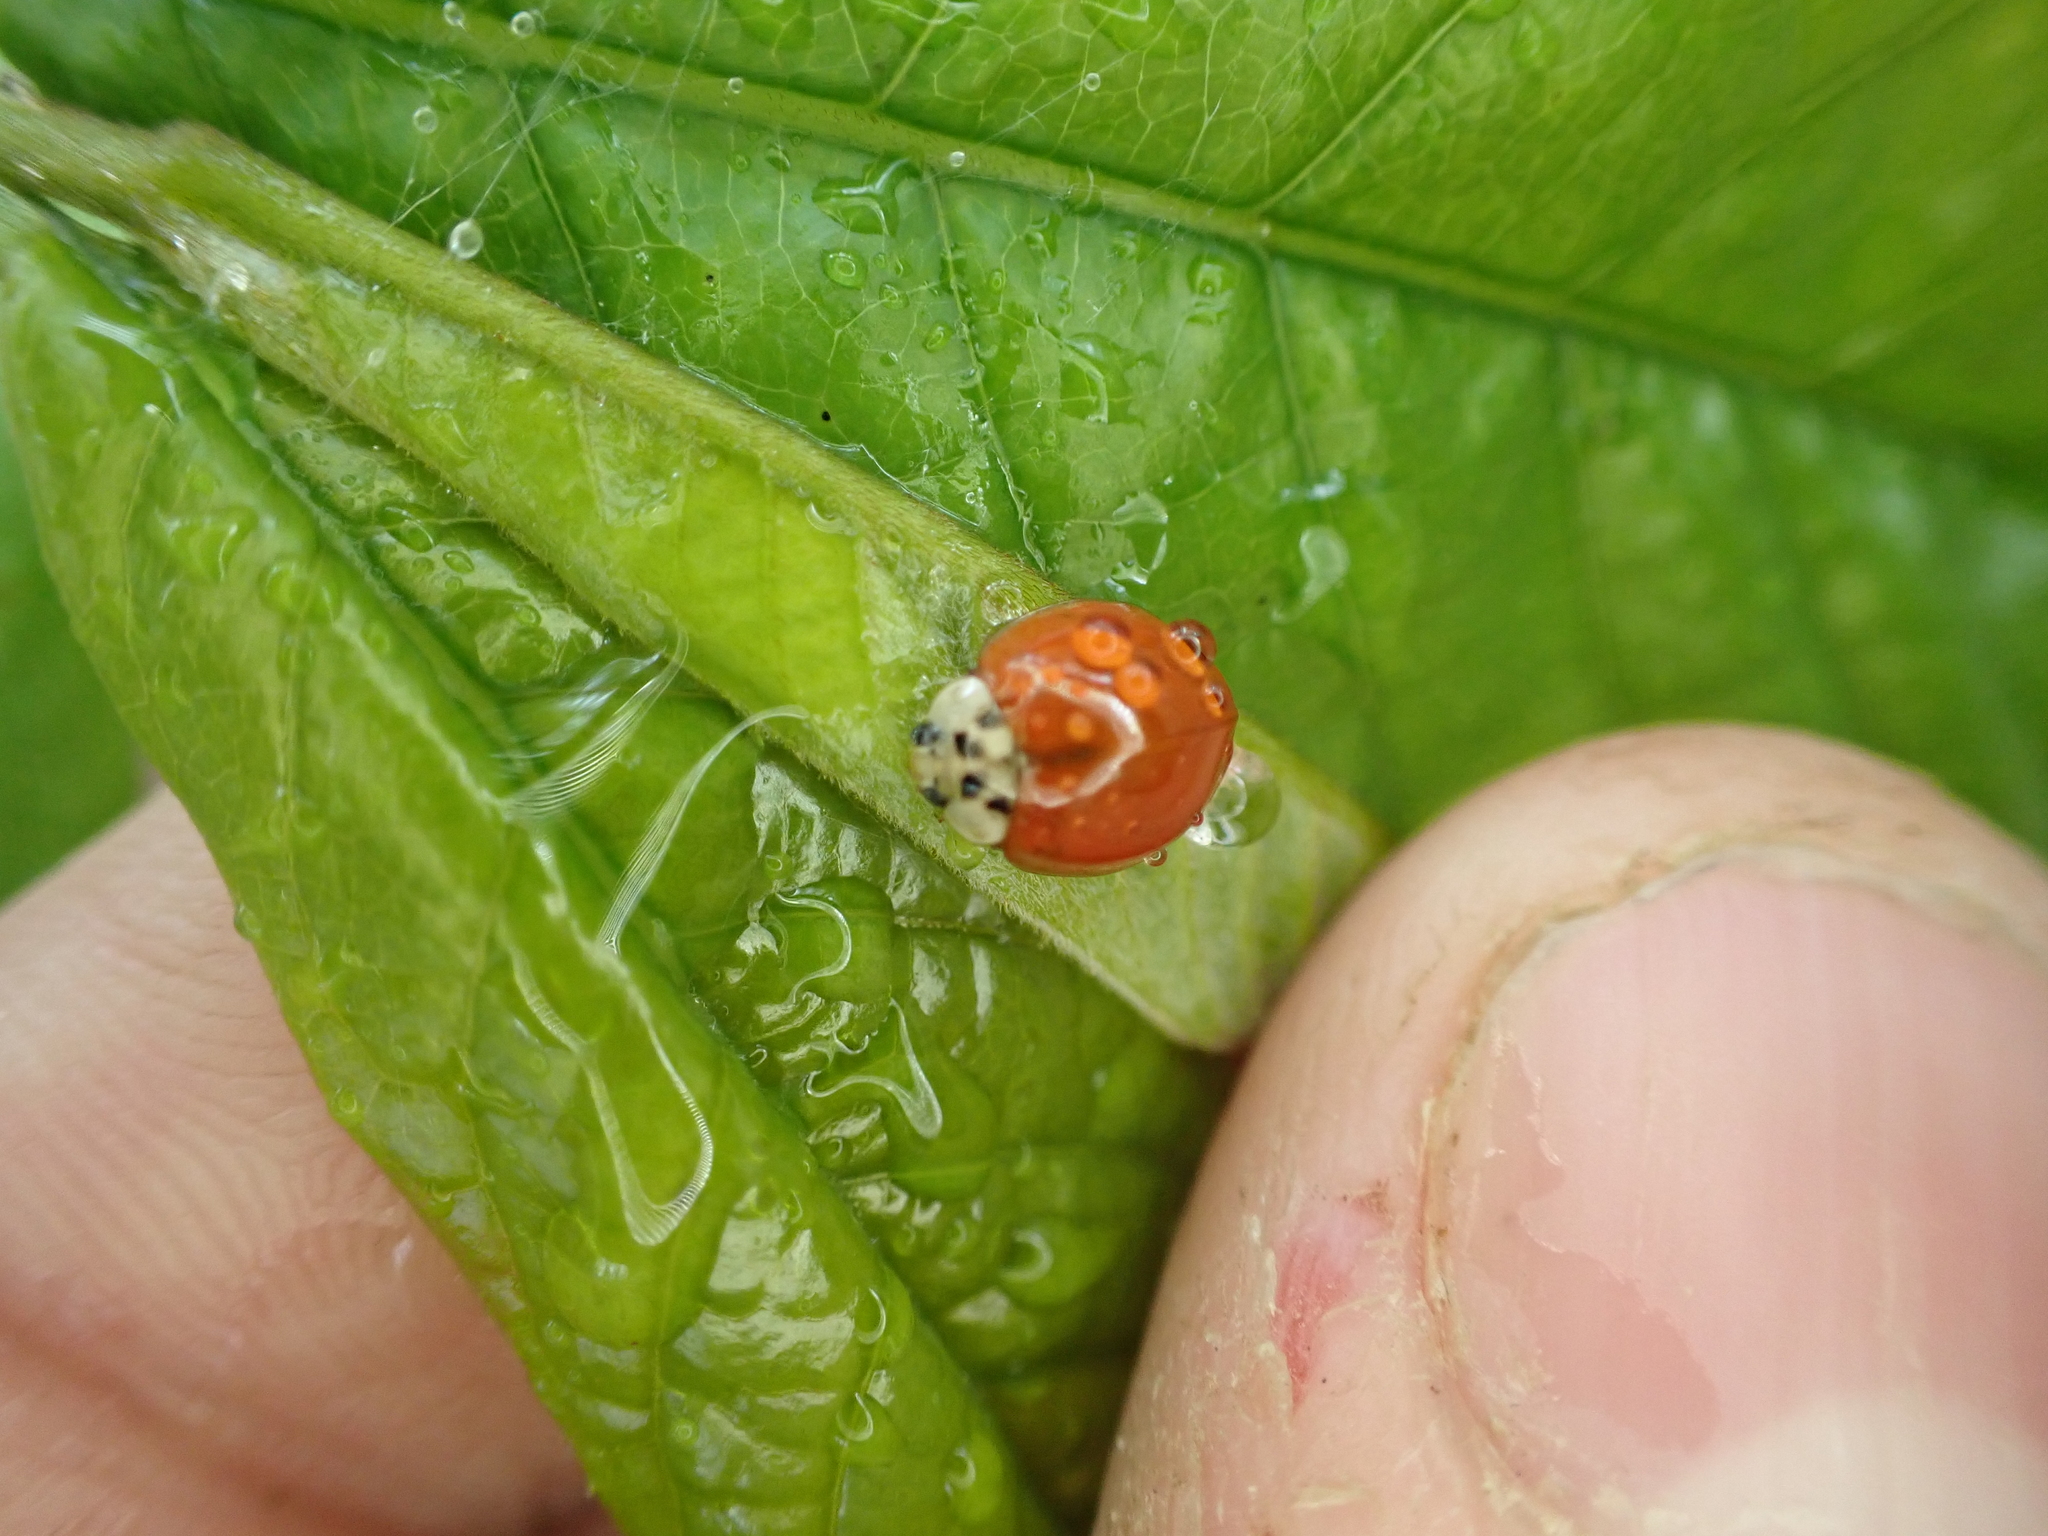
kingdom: Animalia
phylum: Arthropoda
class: Insecta
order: Coleoptera
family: Coccinellidae
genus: Harmonia
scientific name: Harmonia axyridis
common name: Harlequin ladybird
